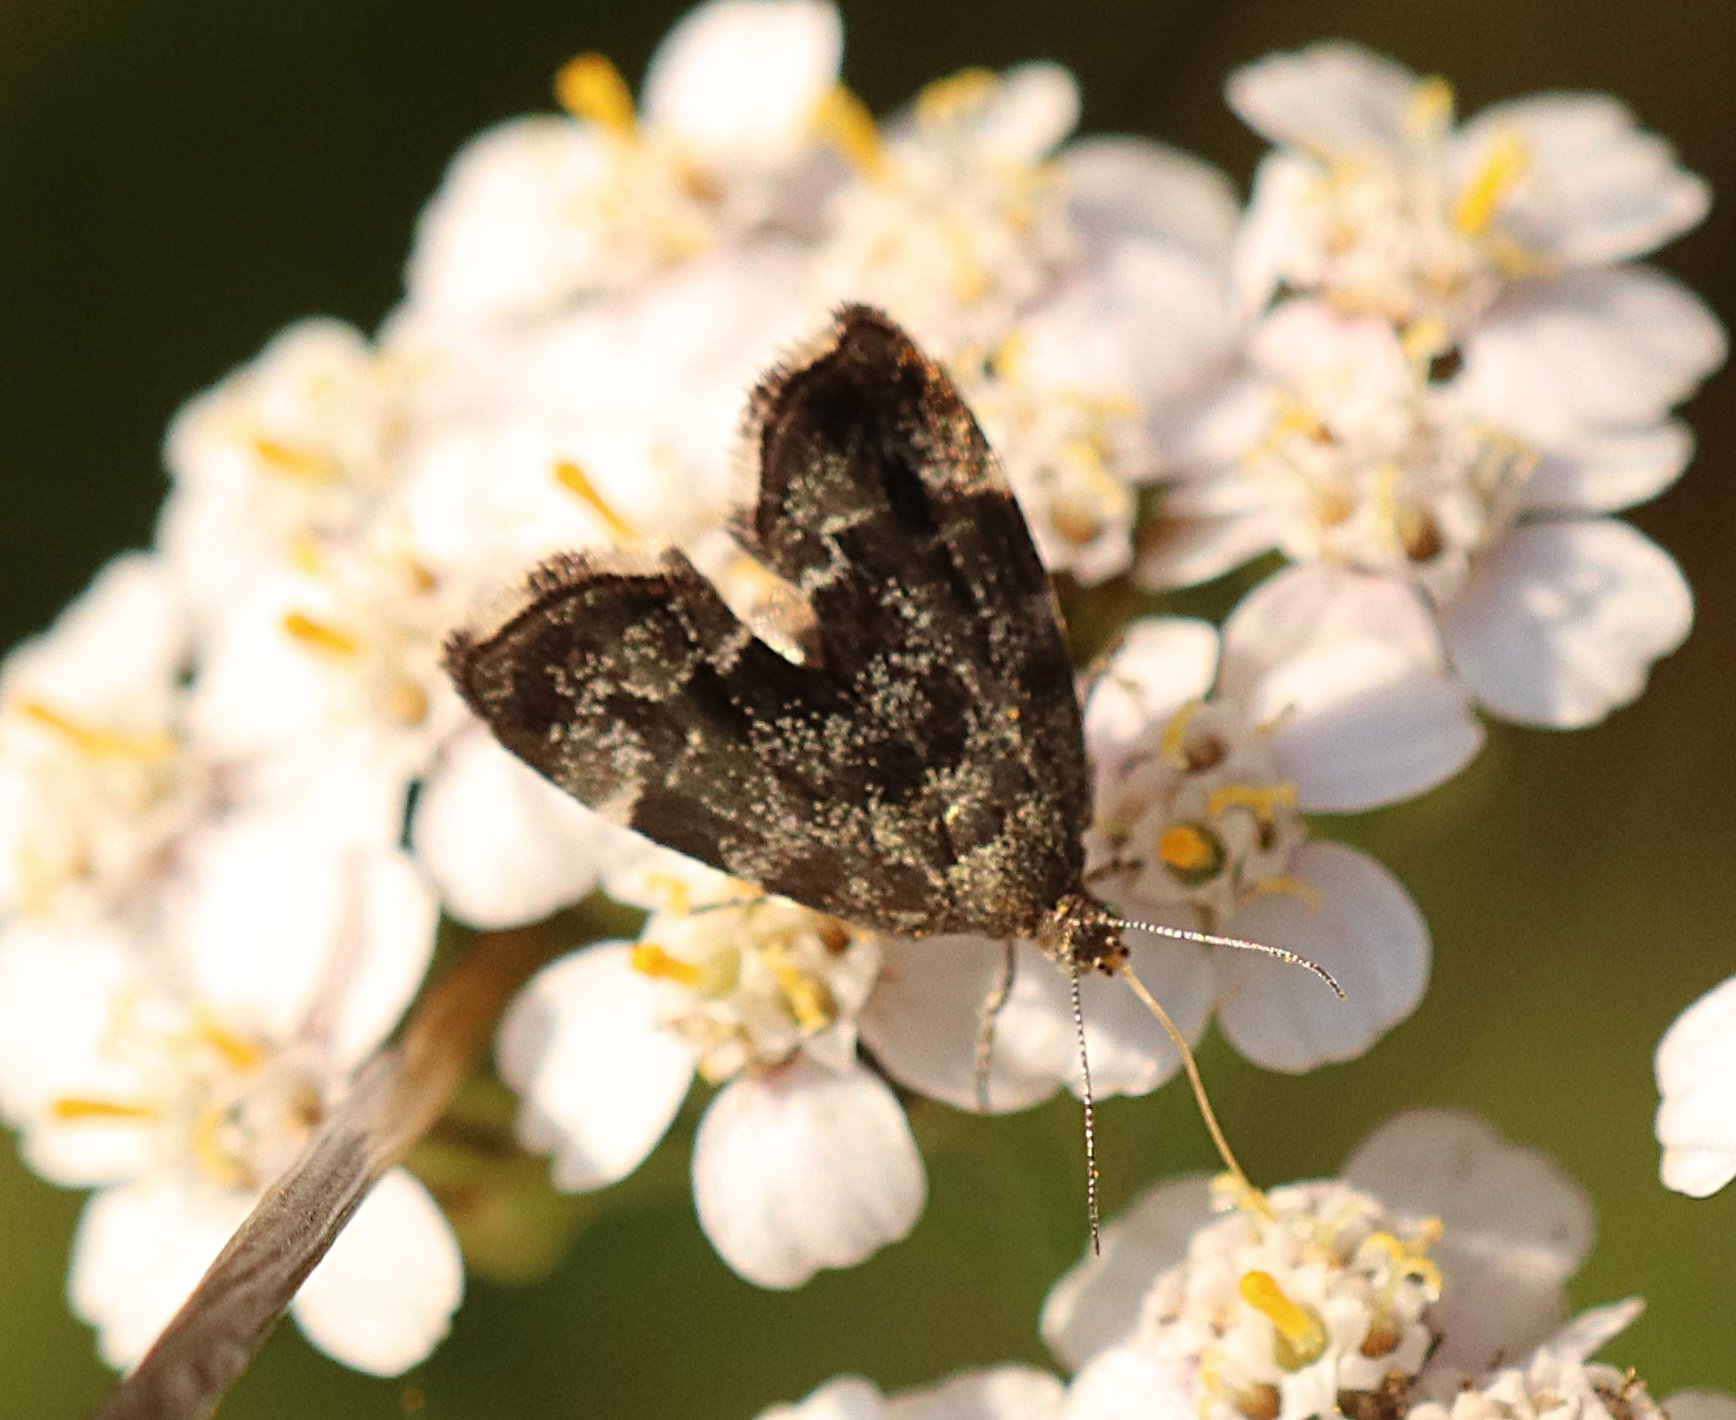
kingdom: Animalia
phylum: Arthropoda
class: Insecta
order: Lepidoptera
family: Choreutidae
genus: Anthophila
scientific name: Anthophila fabriciana
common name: Nettle-tap
